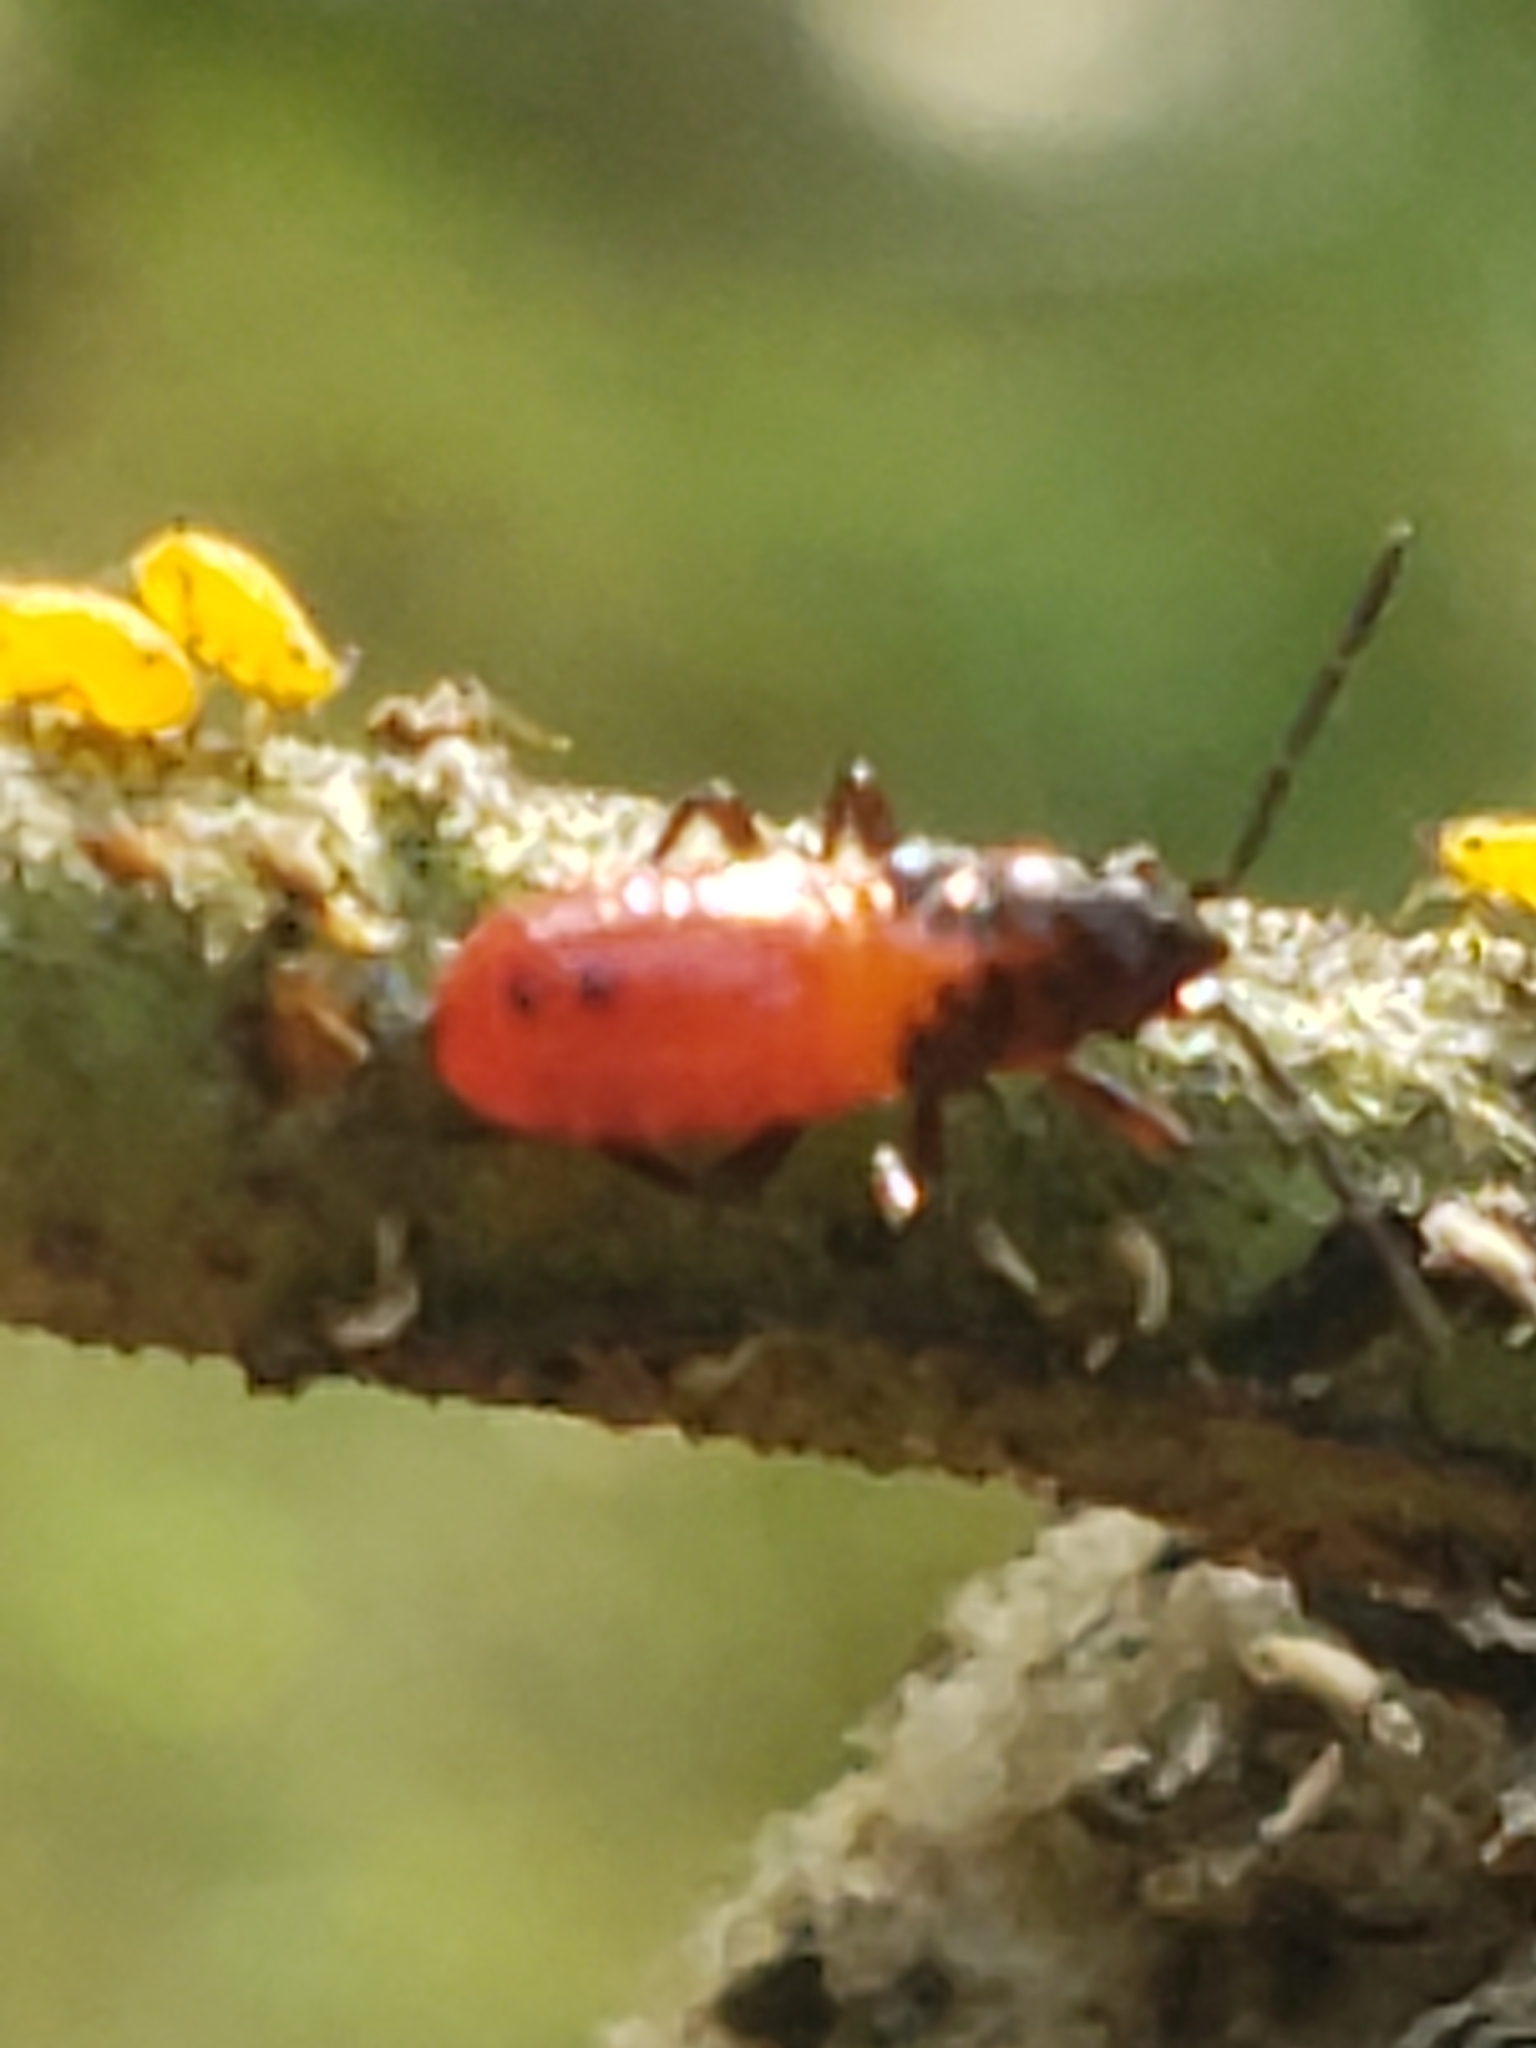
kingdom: Animalia
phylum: Arthropoda
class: Insecta
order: Hemiptera
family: Lygaeidae
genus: Oncopeltus
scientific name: Oncopeltus fasciatus
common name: Large milkweed bug
